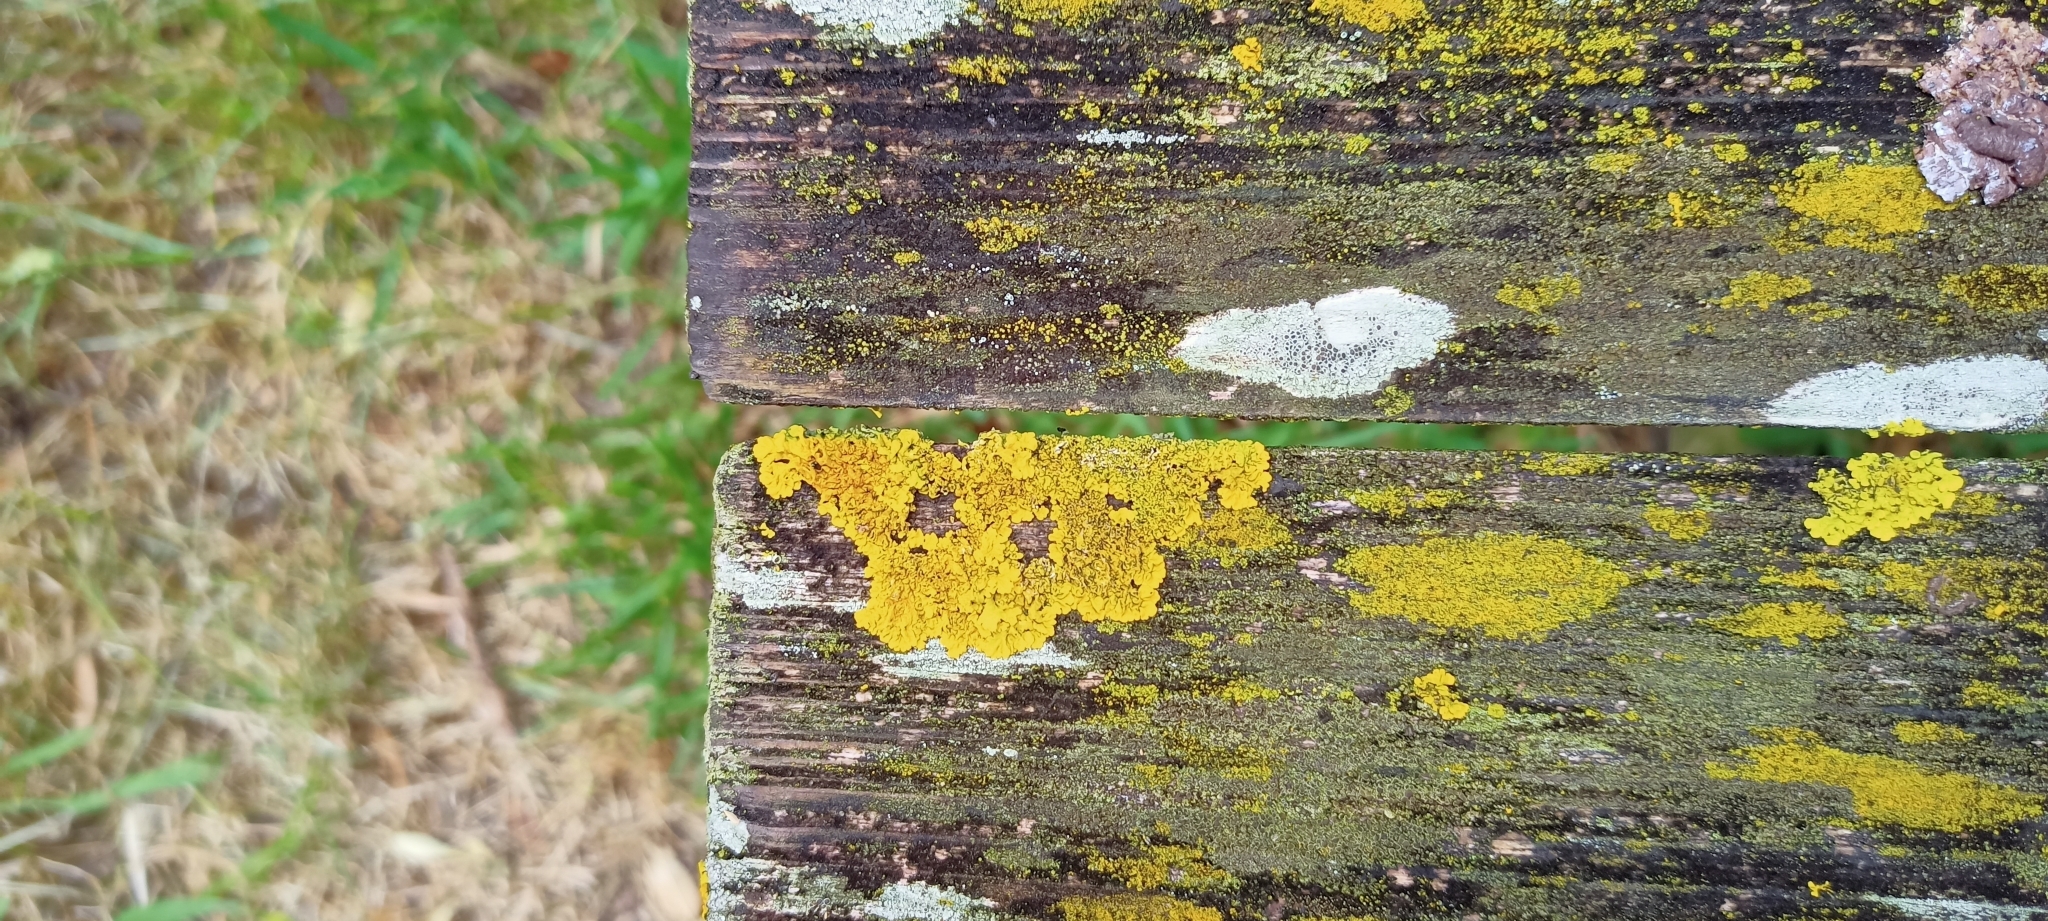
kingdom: Fungi
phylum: Ascomycota
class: Lecanoromycetes
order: Teloschistales
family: Teloschistaceae
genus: Xanthoria
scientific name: Xanthoria parietina
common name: Common orange lichen
